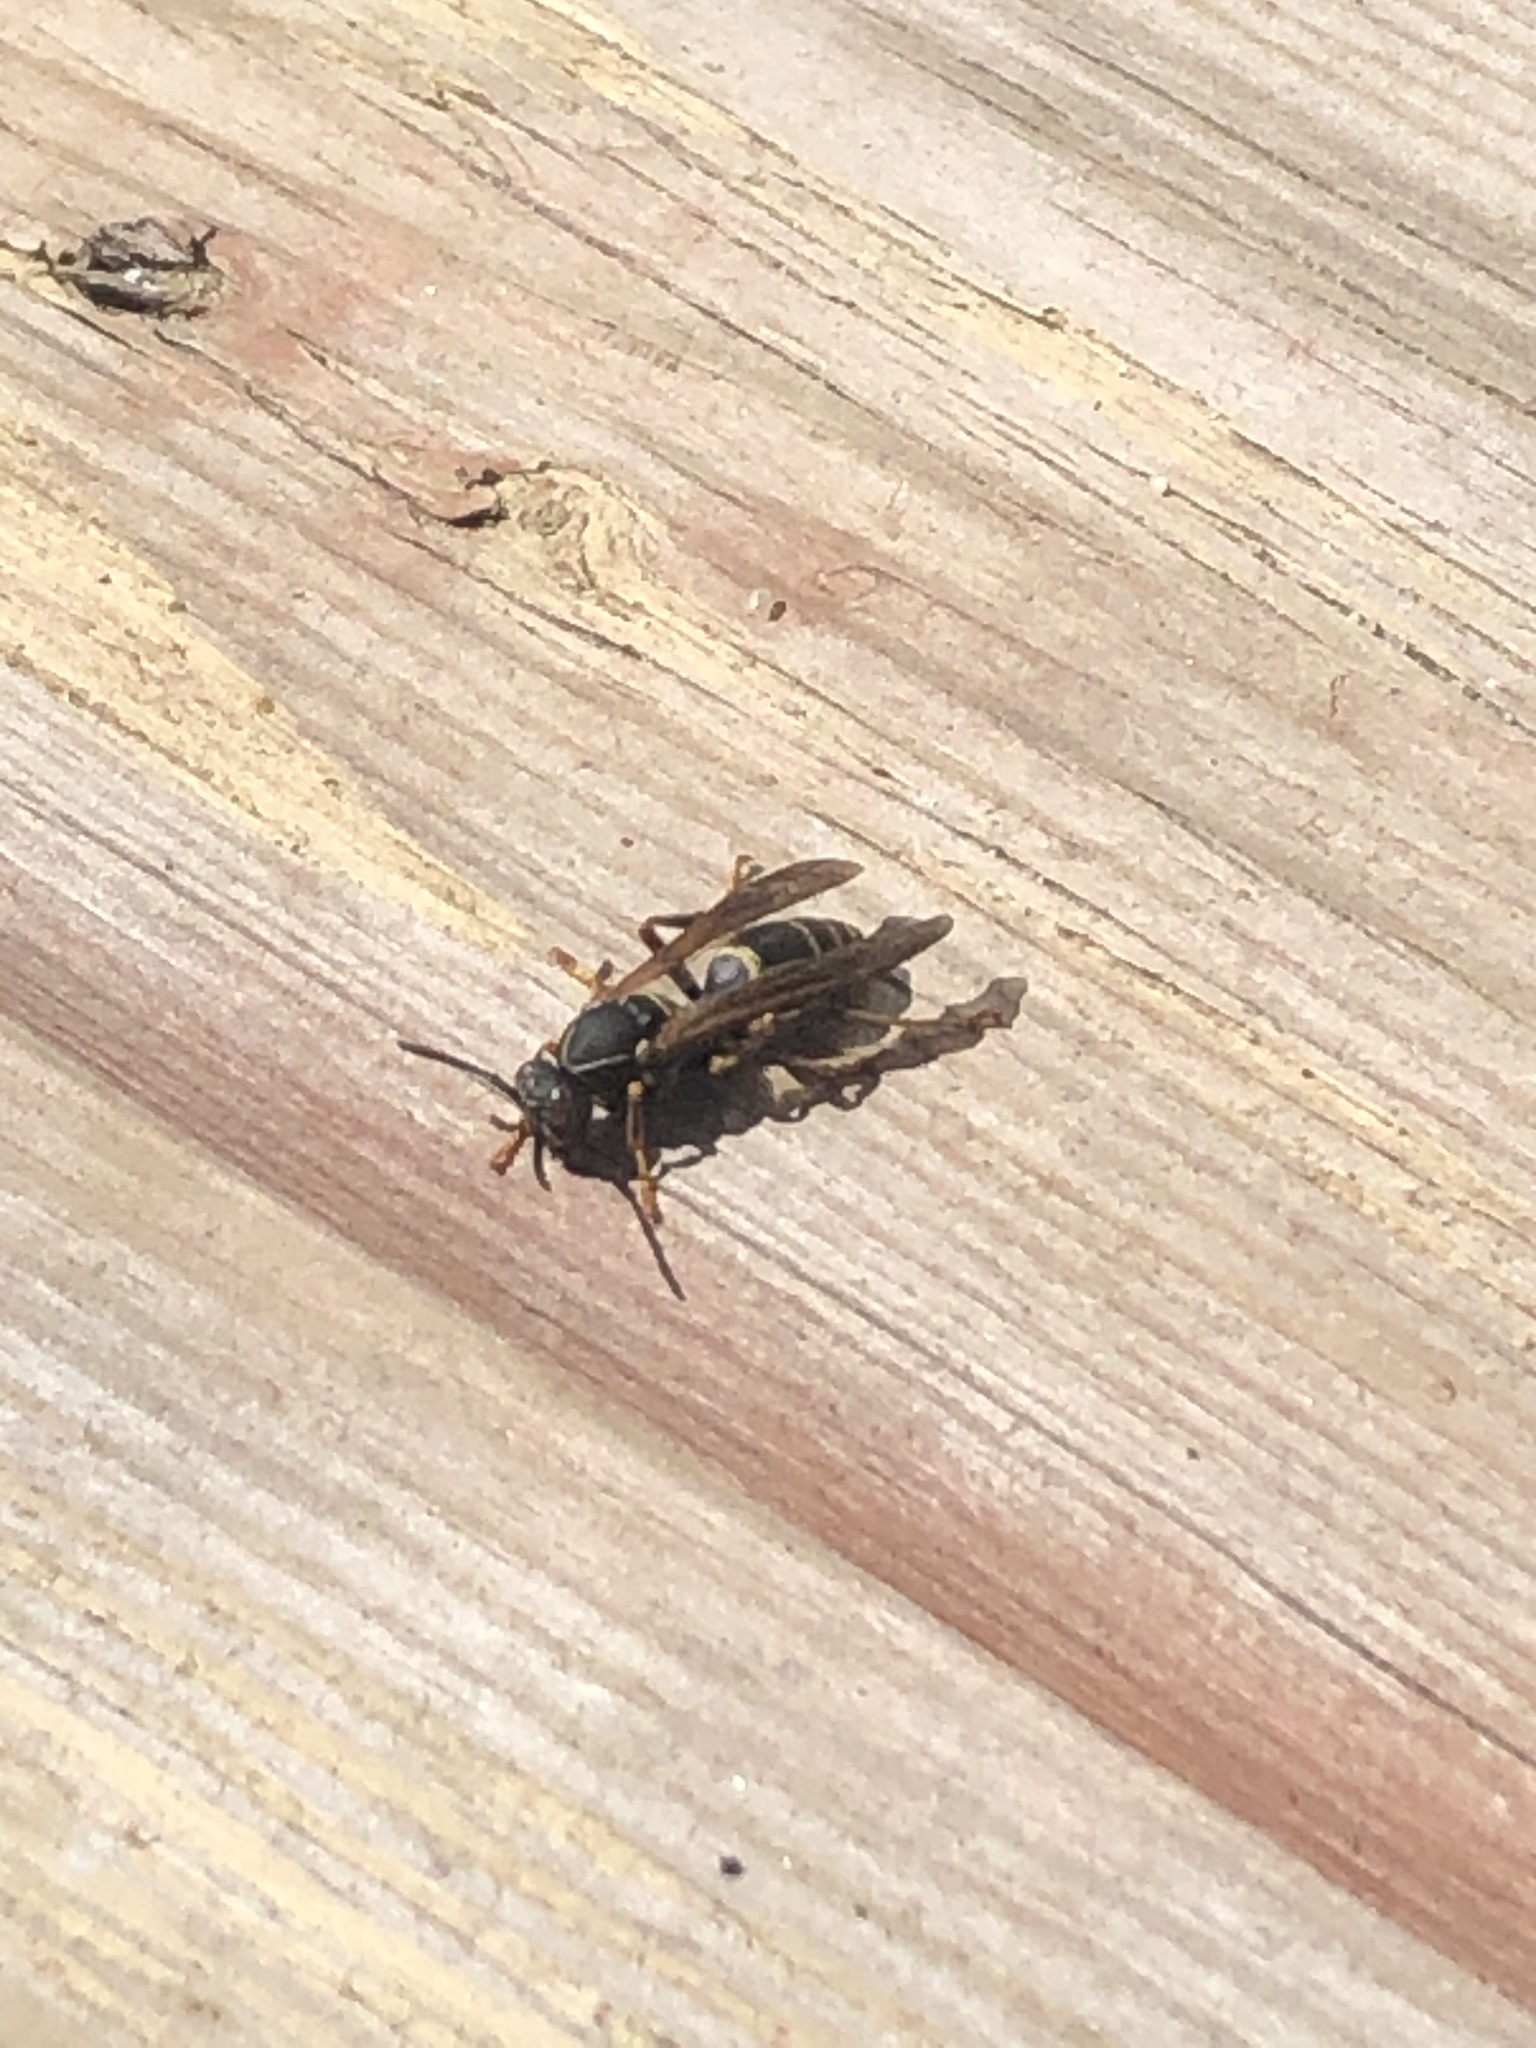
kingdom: Animalia
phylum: Arthropoda
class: Insecta
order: Hymenoptera
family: Eumenidae
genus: Polistes
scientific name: Polistes fuscatus
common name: Dark paper wasp
